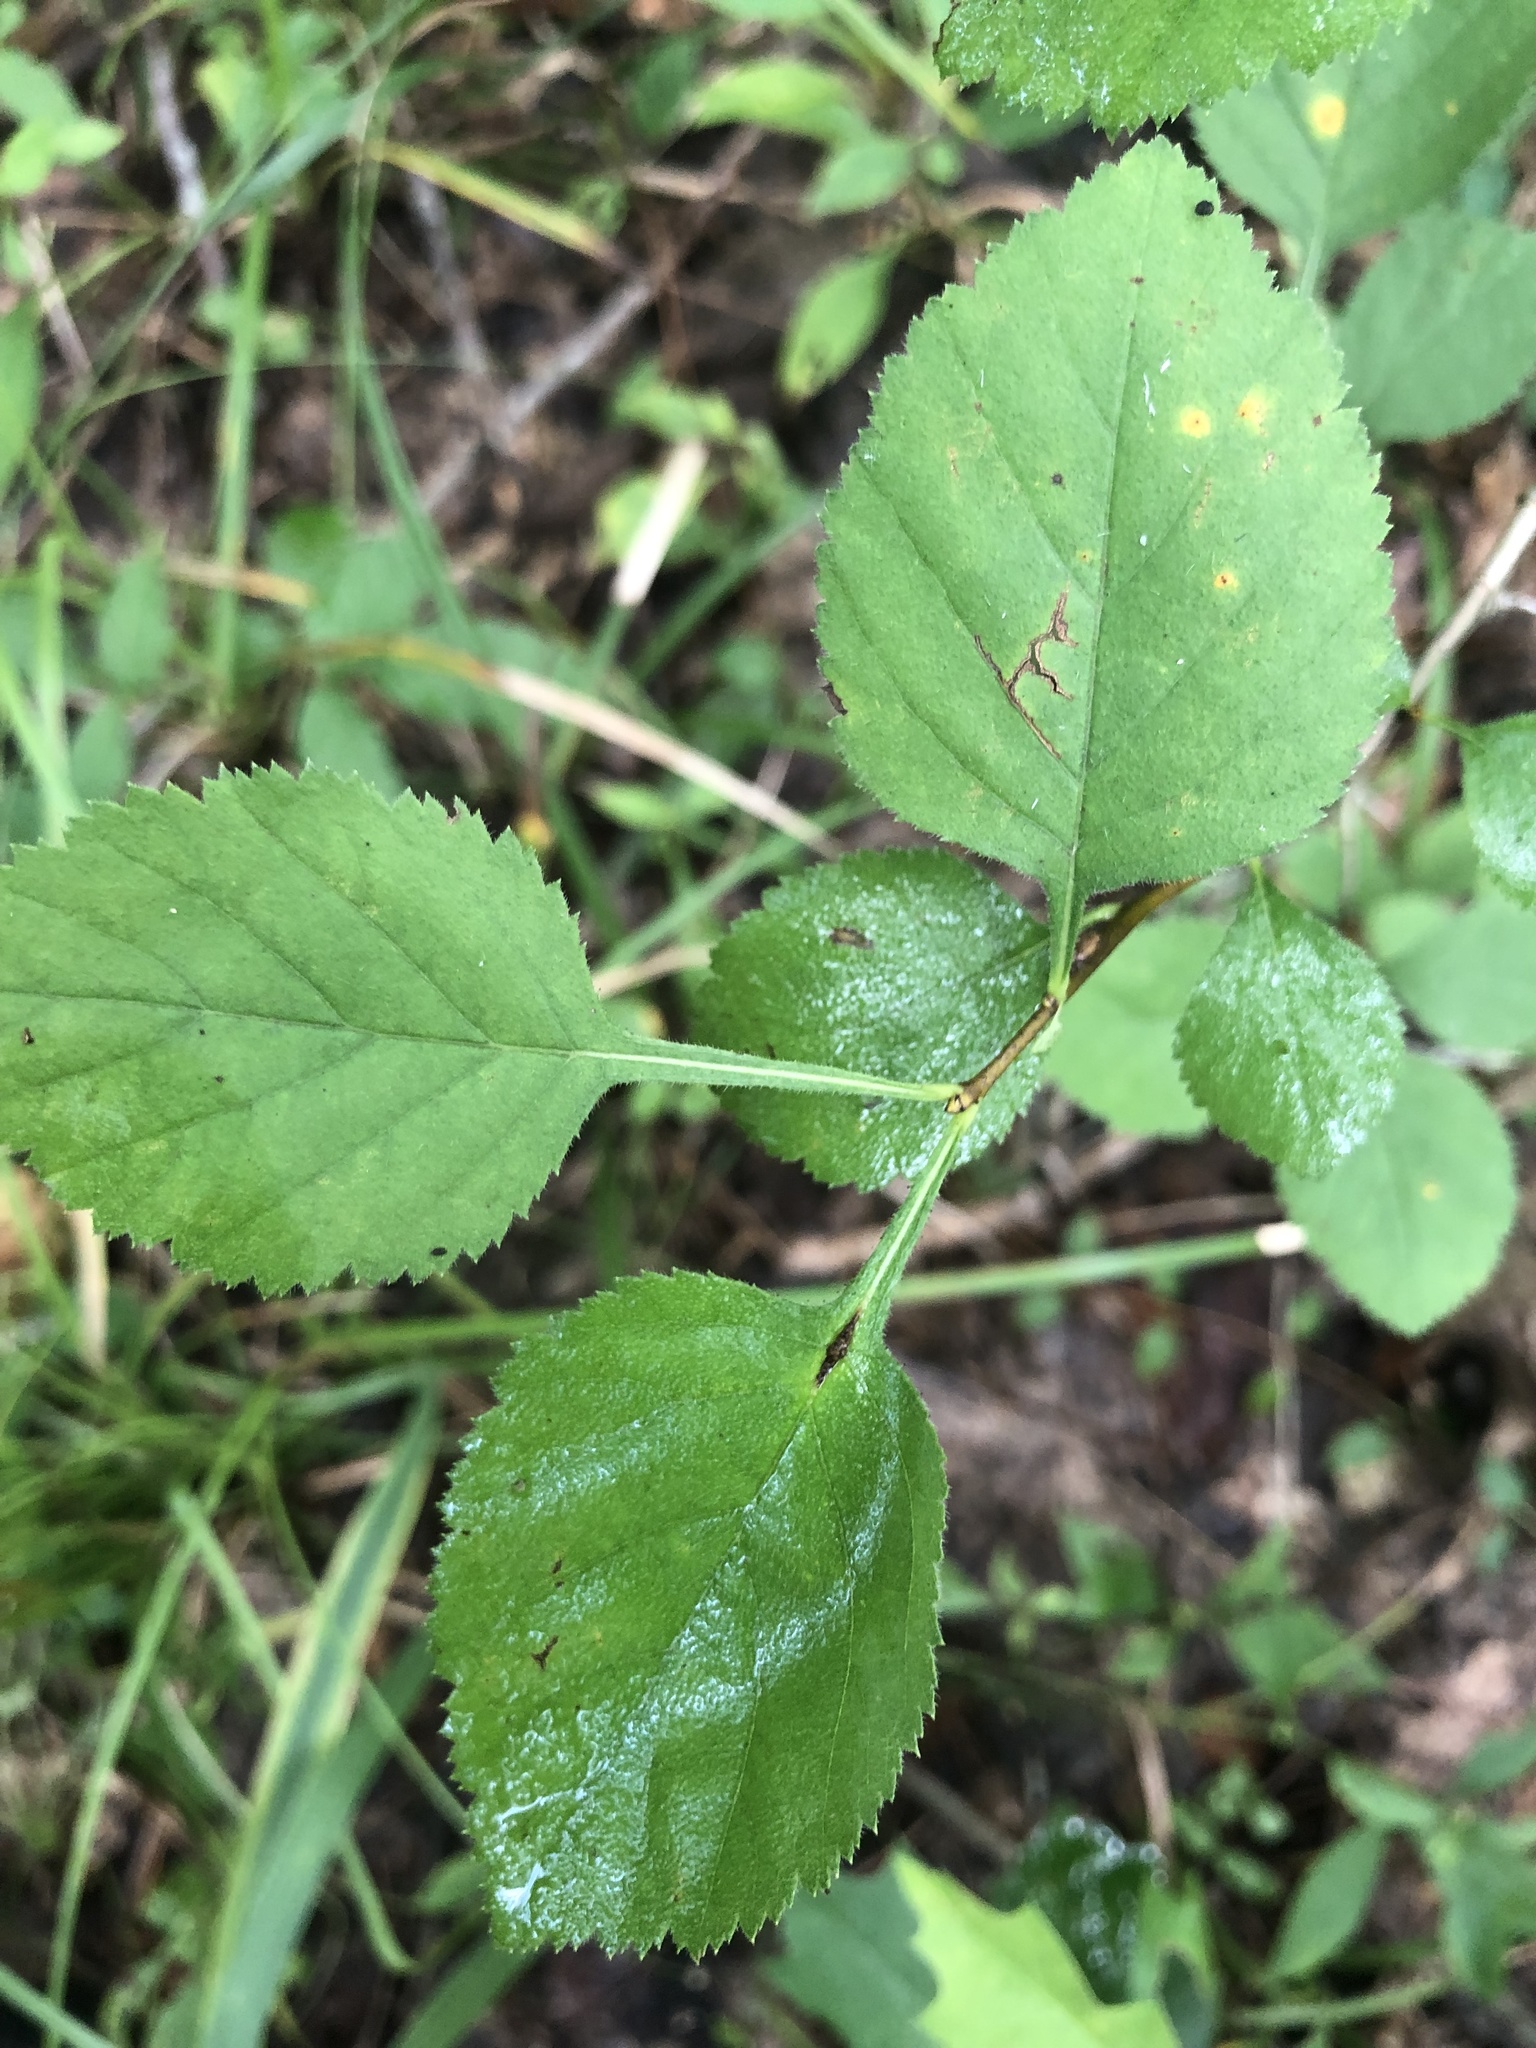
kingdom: Plantae
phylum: Tracheophyta
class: Magnoliopsida
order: Rosales
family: Rosaceae
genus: Crataegus
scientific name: Crataegus triflora
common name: Three-flower hawthorn
